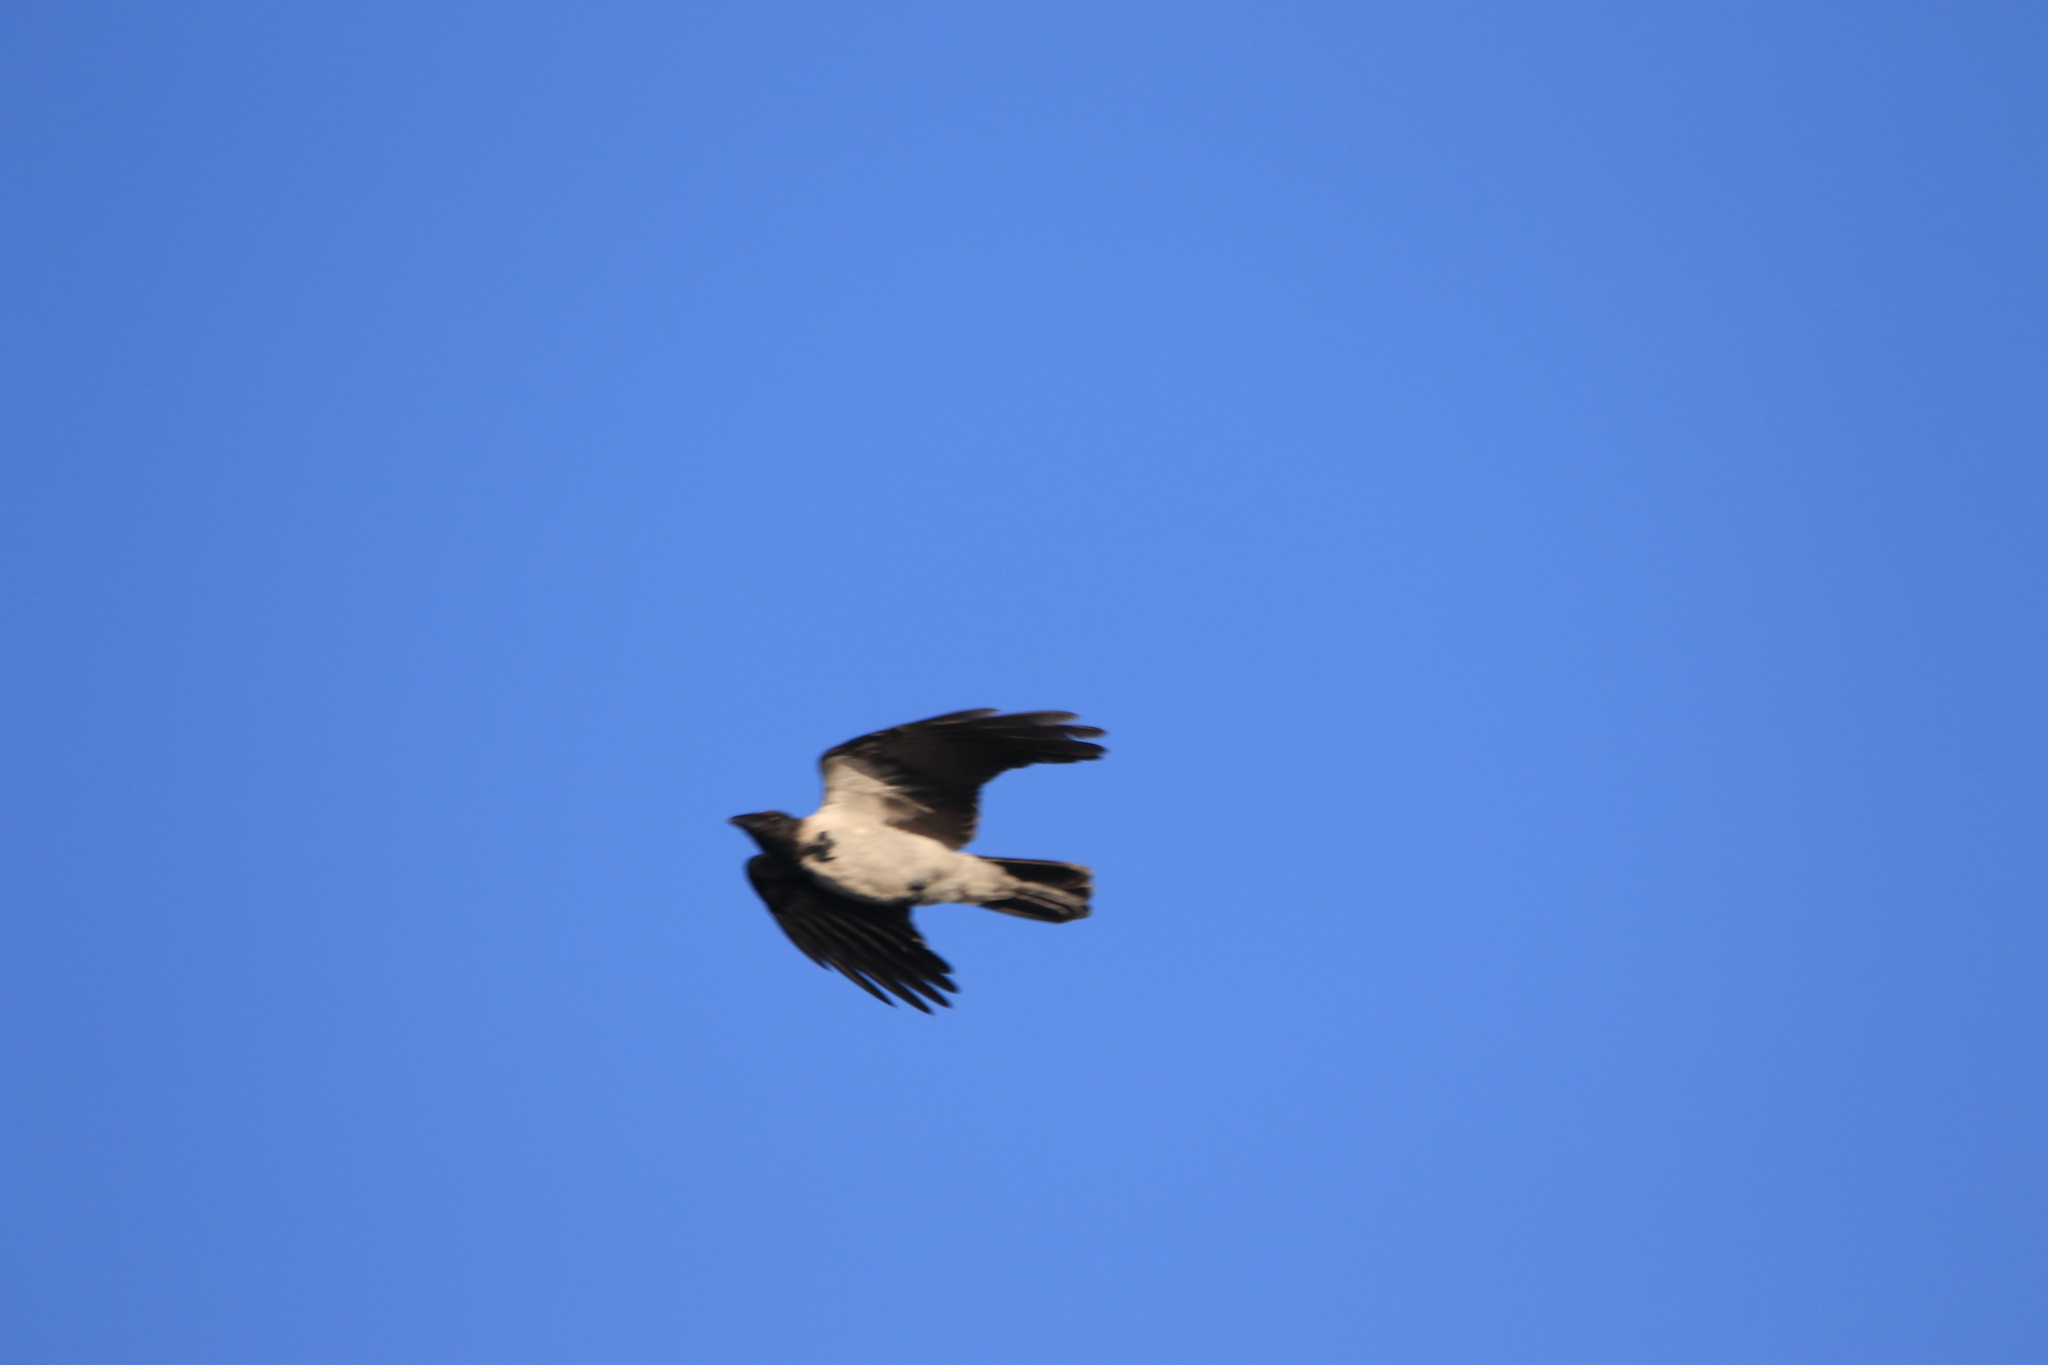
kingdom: Animalia
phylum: Chordata
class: Aves
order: Passeriformes
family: Corvidae
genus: Corvus
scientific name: Corvus cornix
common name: Hooded crow
